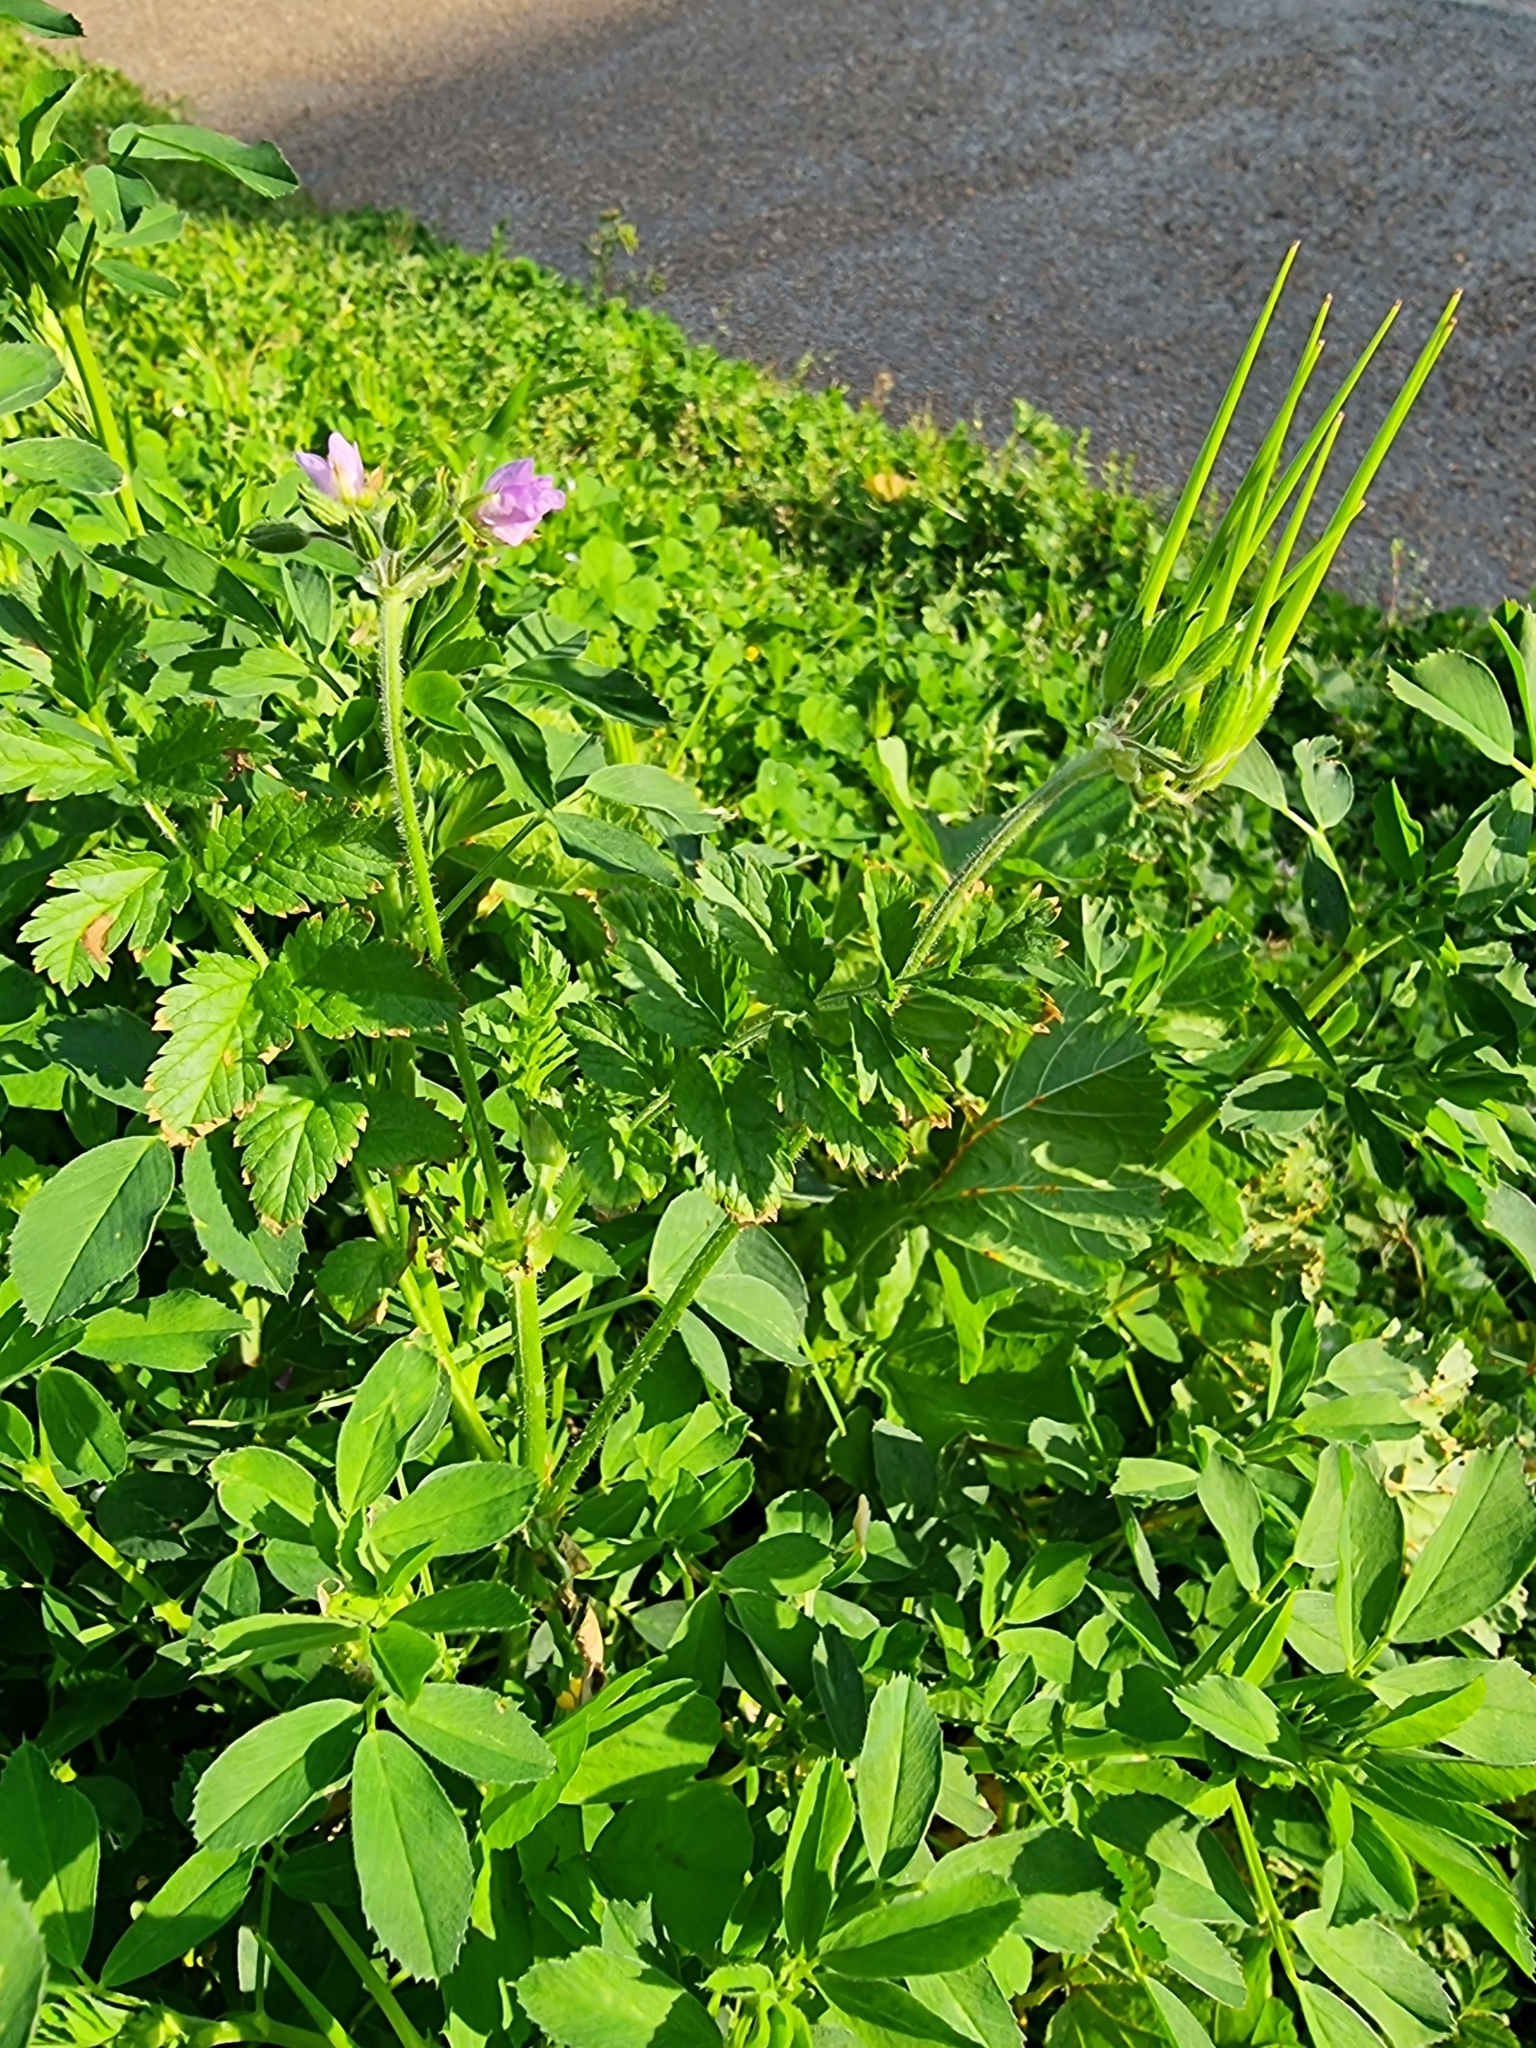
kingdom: Plantae
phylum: Tracheophyta
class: Magnoliopsida
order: Geraniales
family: Geraniaceae
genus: Erodium
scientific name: Erodium moschatum
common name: Musk stork's-bill
